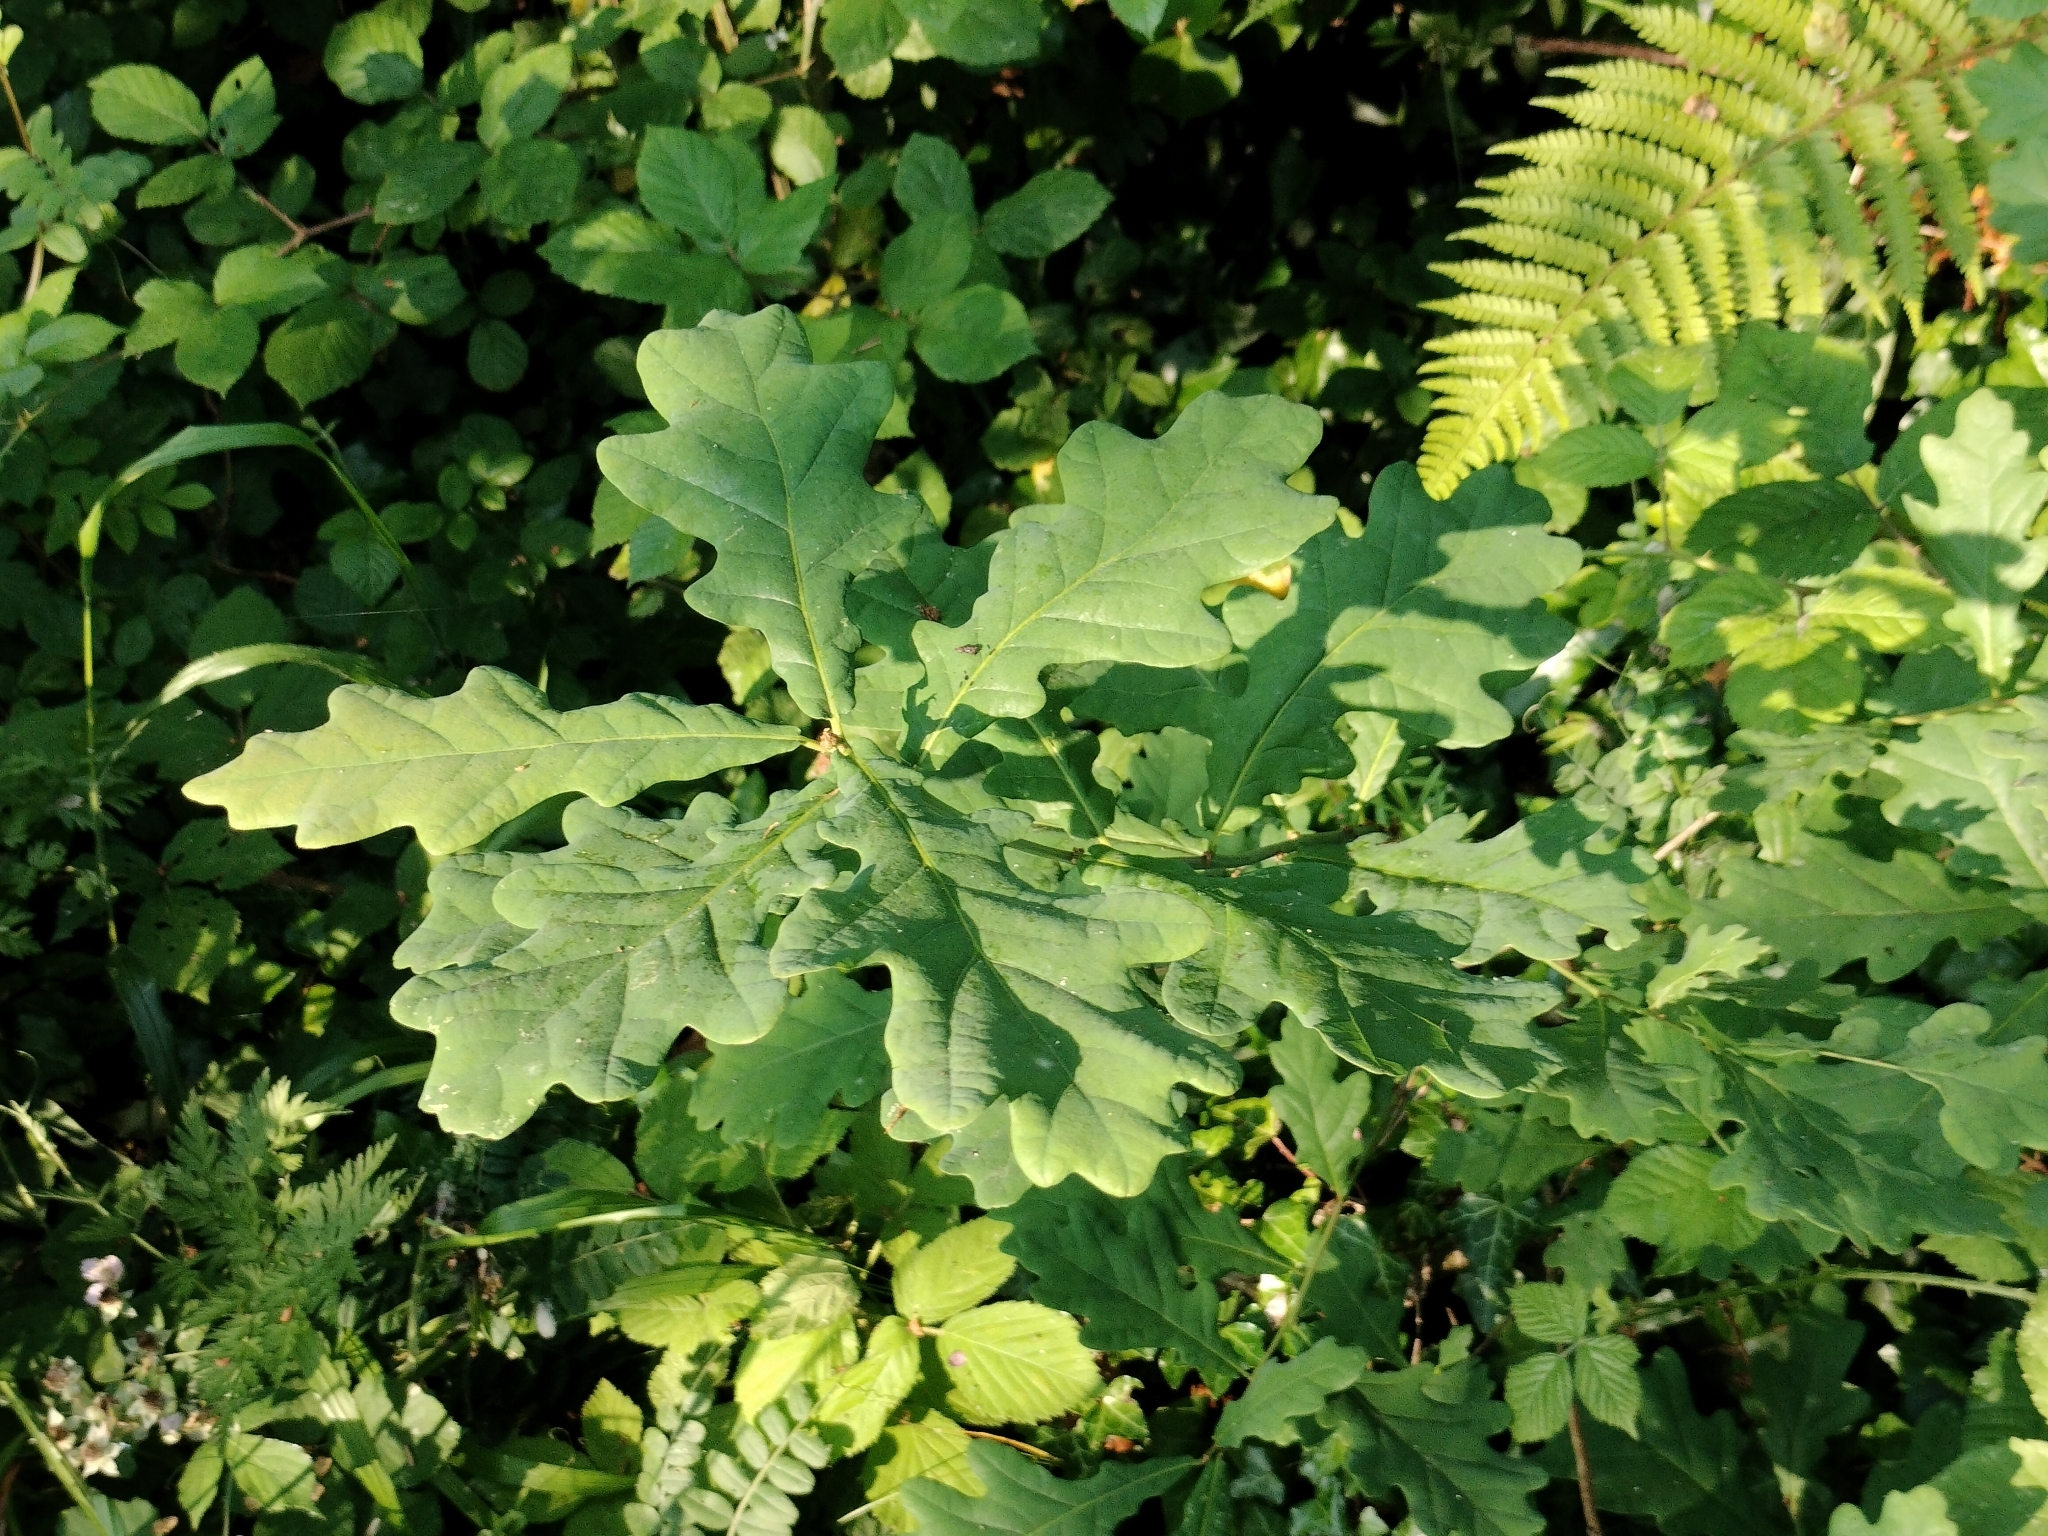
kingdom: Plantae
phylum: Tracheophyta
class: Magnoliopsida
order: Fagales
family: Fagaceae
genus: Quercus
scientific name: Quercus robur
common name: Pedunculate oak
